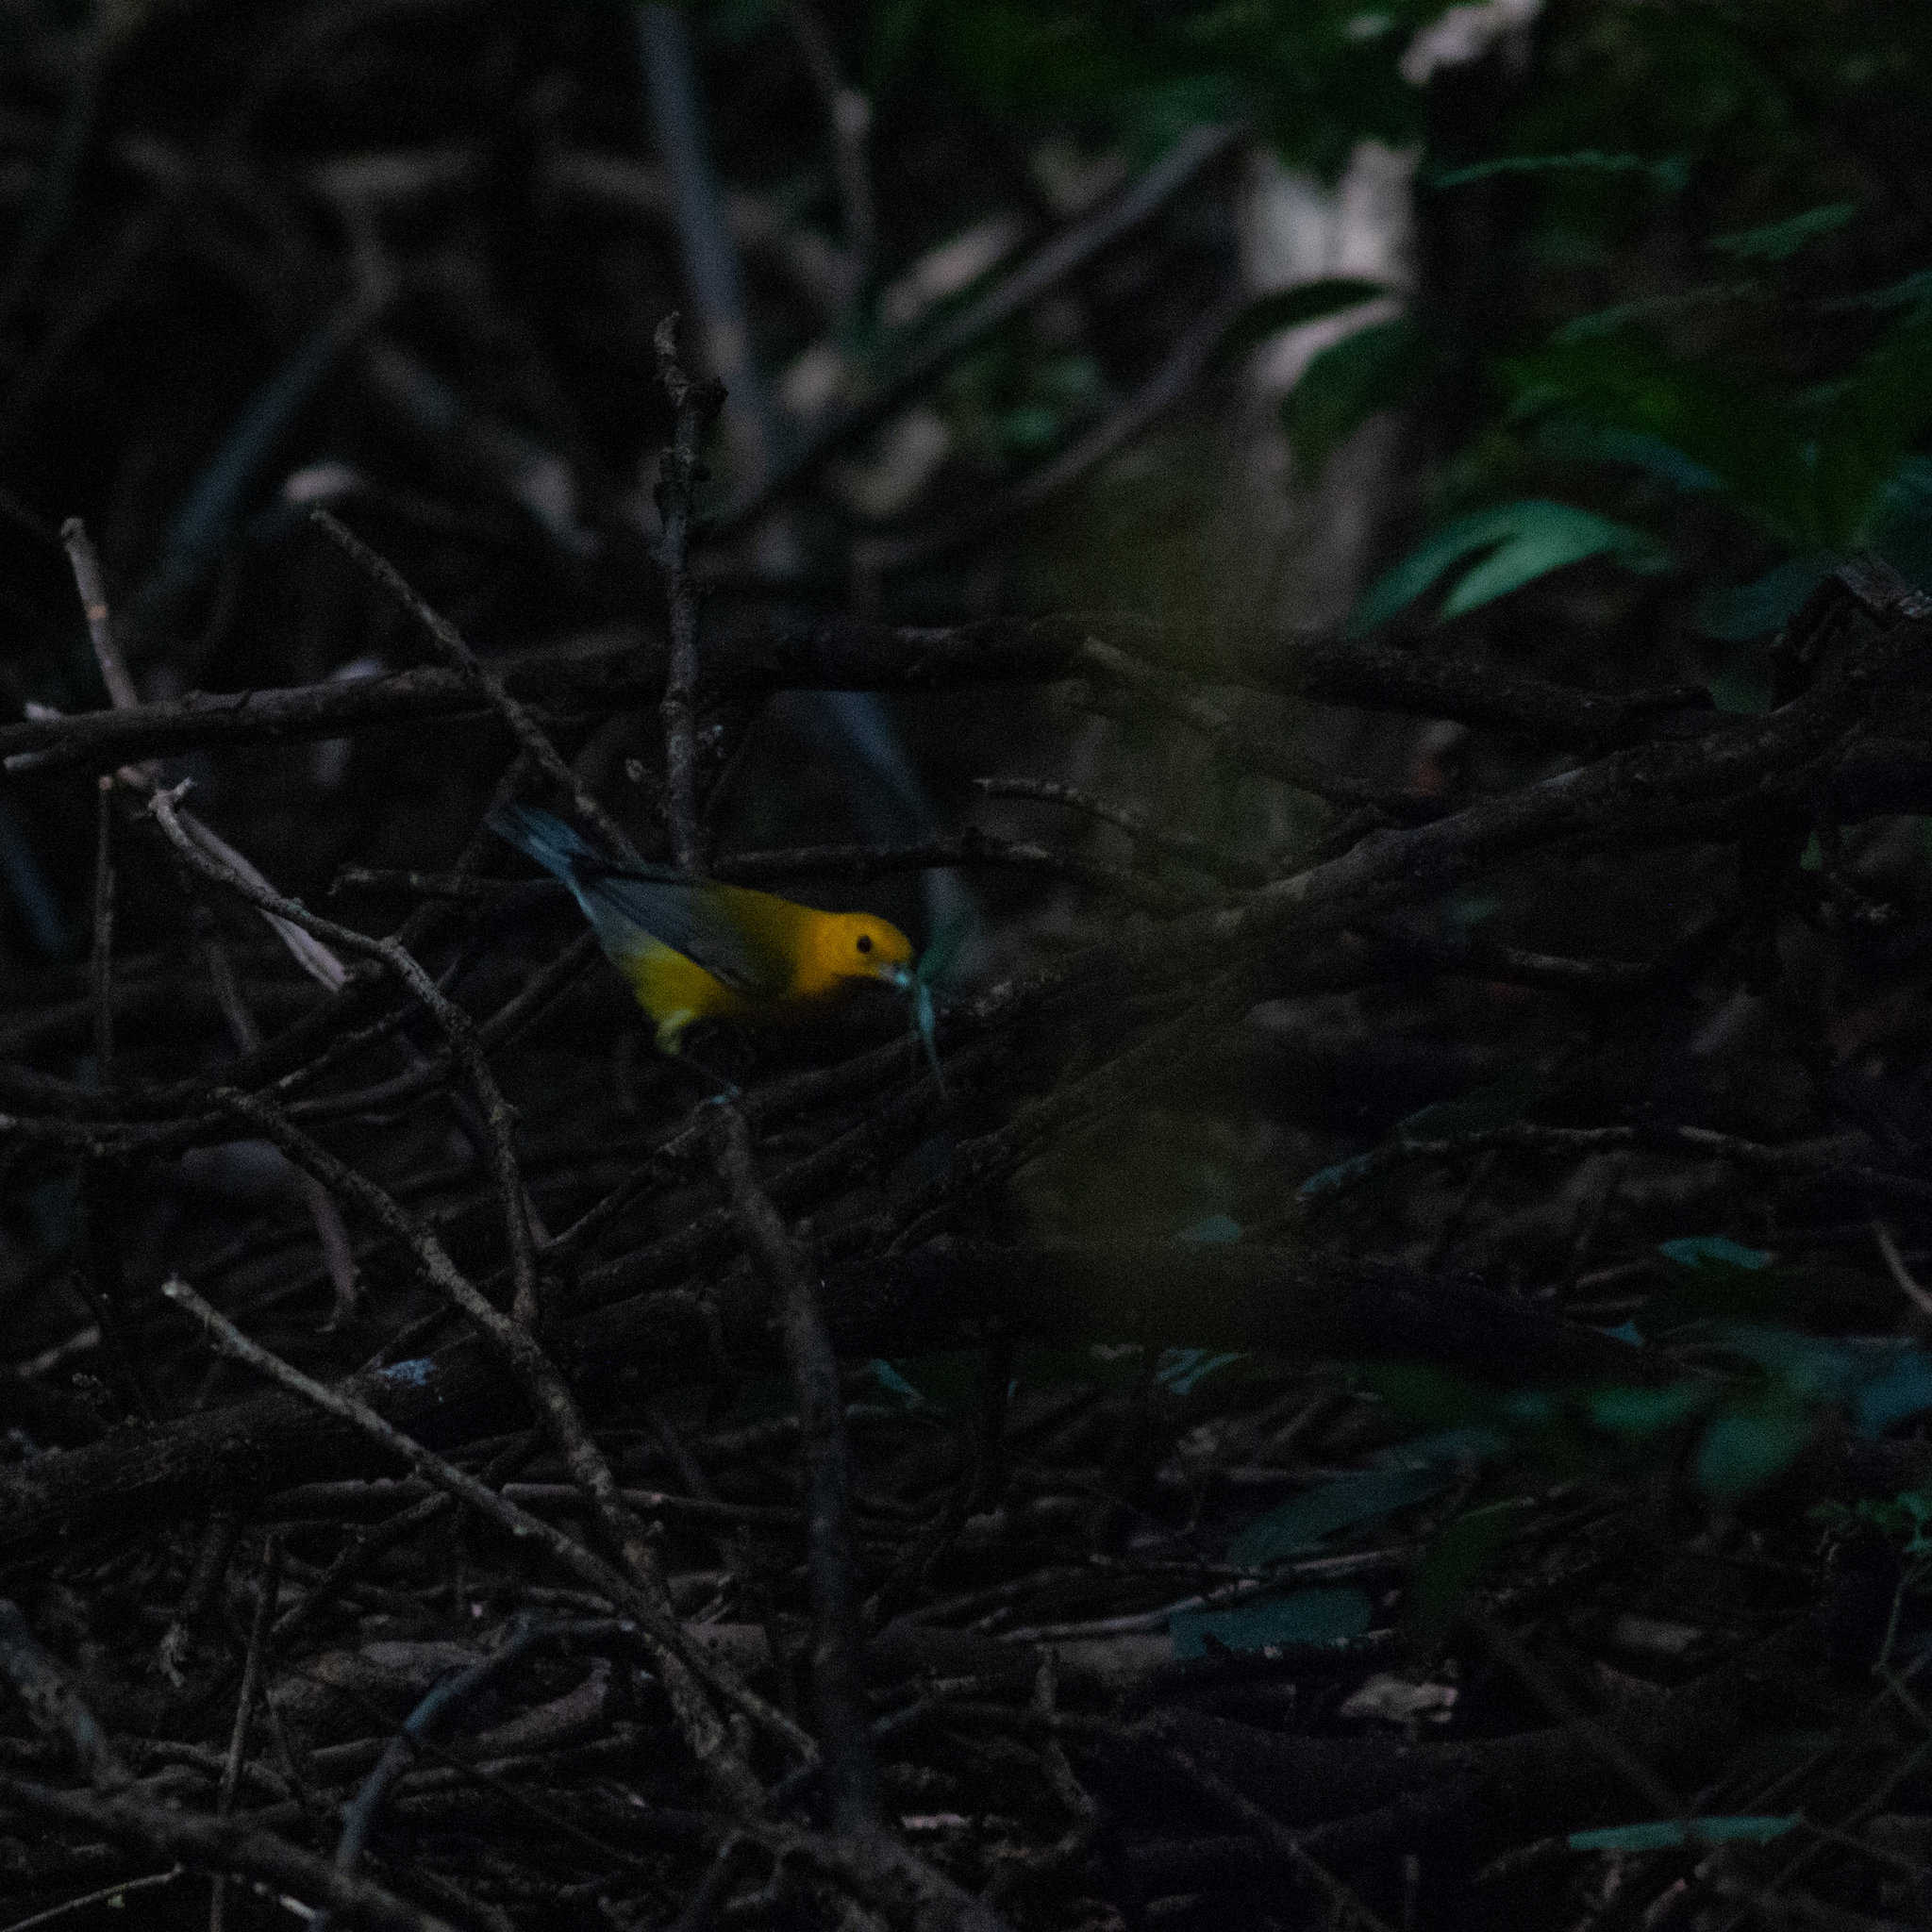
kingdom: Animalia
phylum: Chordata
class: Aves
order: Passeriformes
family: Parulidae
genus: Protonotaria
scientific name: Protonotaria citrea
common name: Prothonotary warbler
